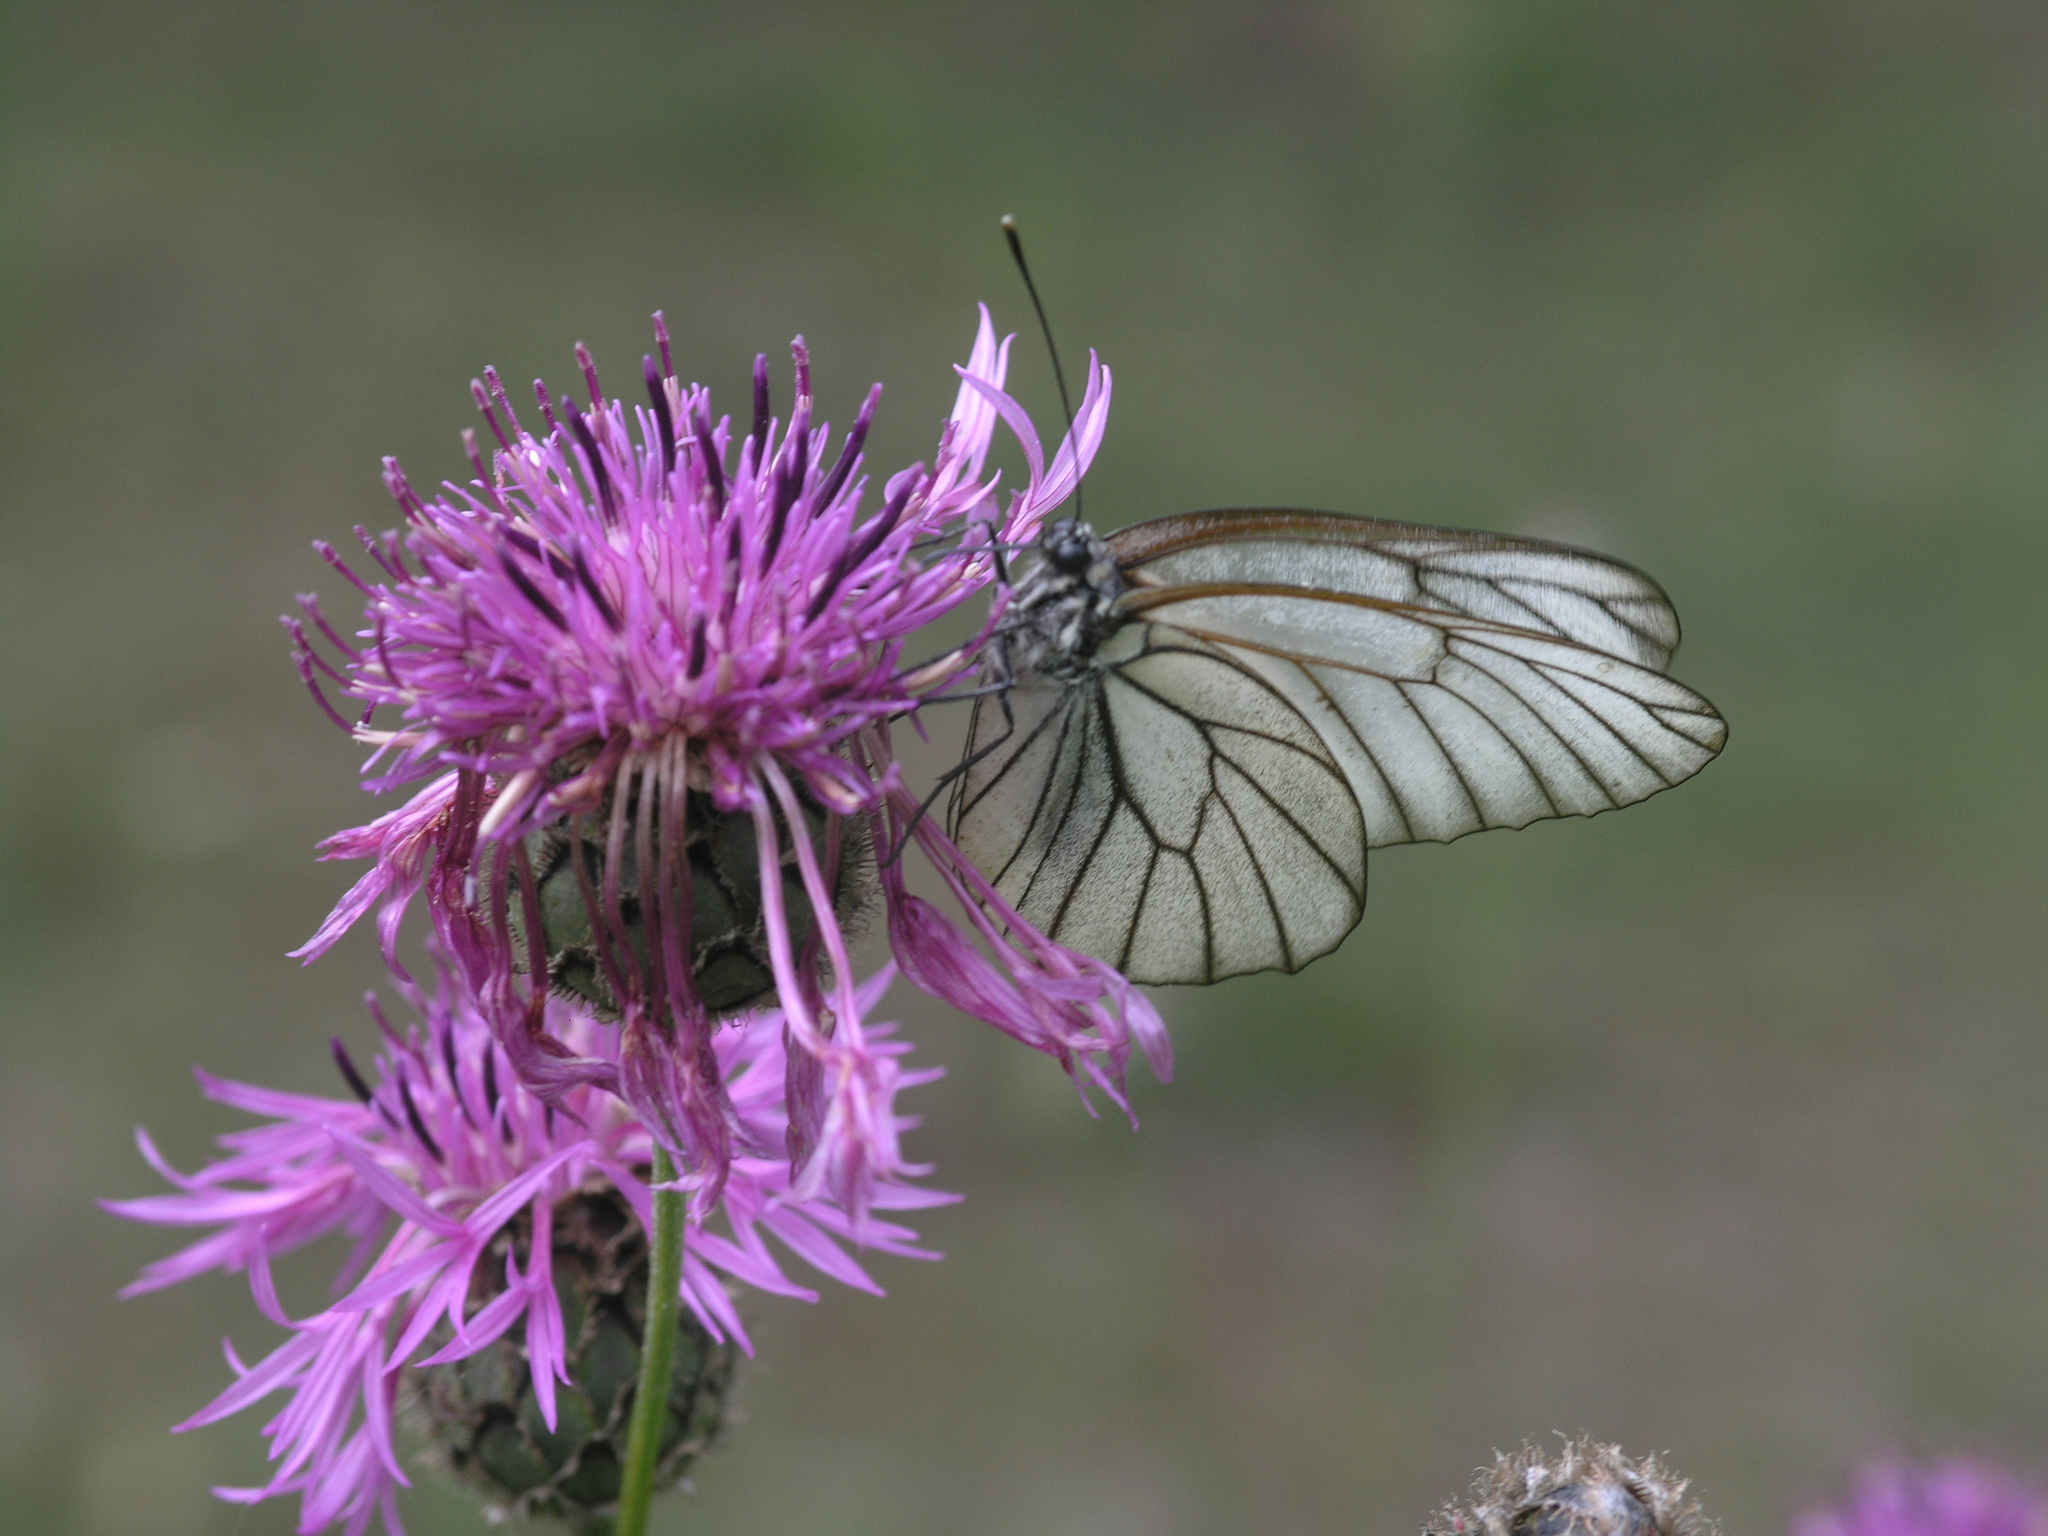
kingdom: Animalia
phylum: Arthropoda
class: Insecta
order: Lepidoptera
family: Pieridae
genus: Aporia
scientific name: Aporia crataegi
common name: Black-veined white
